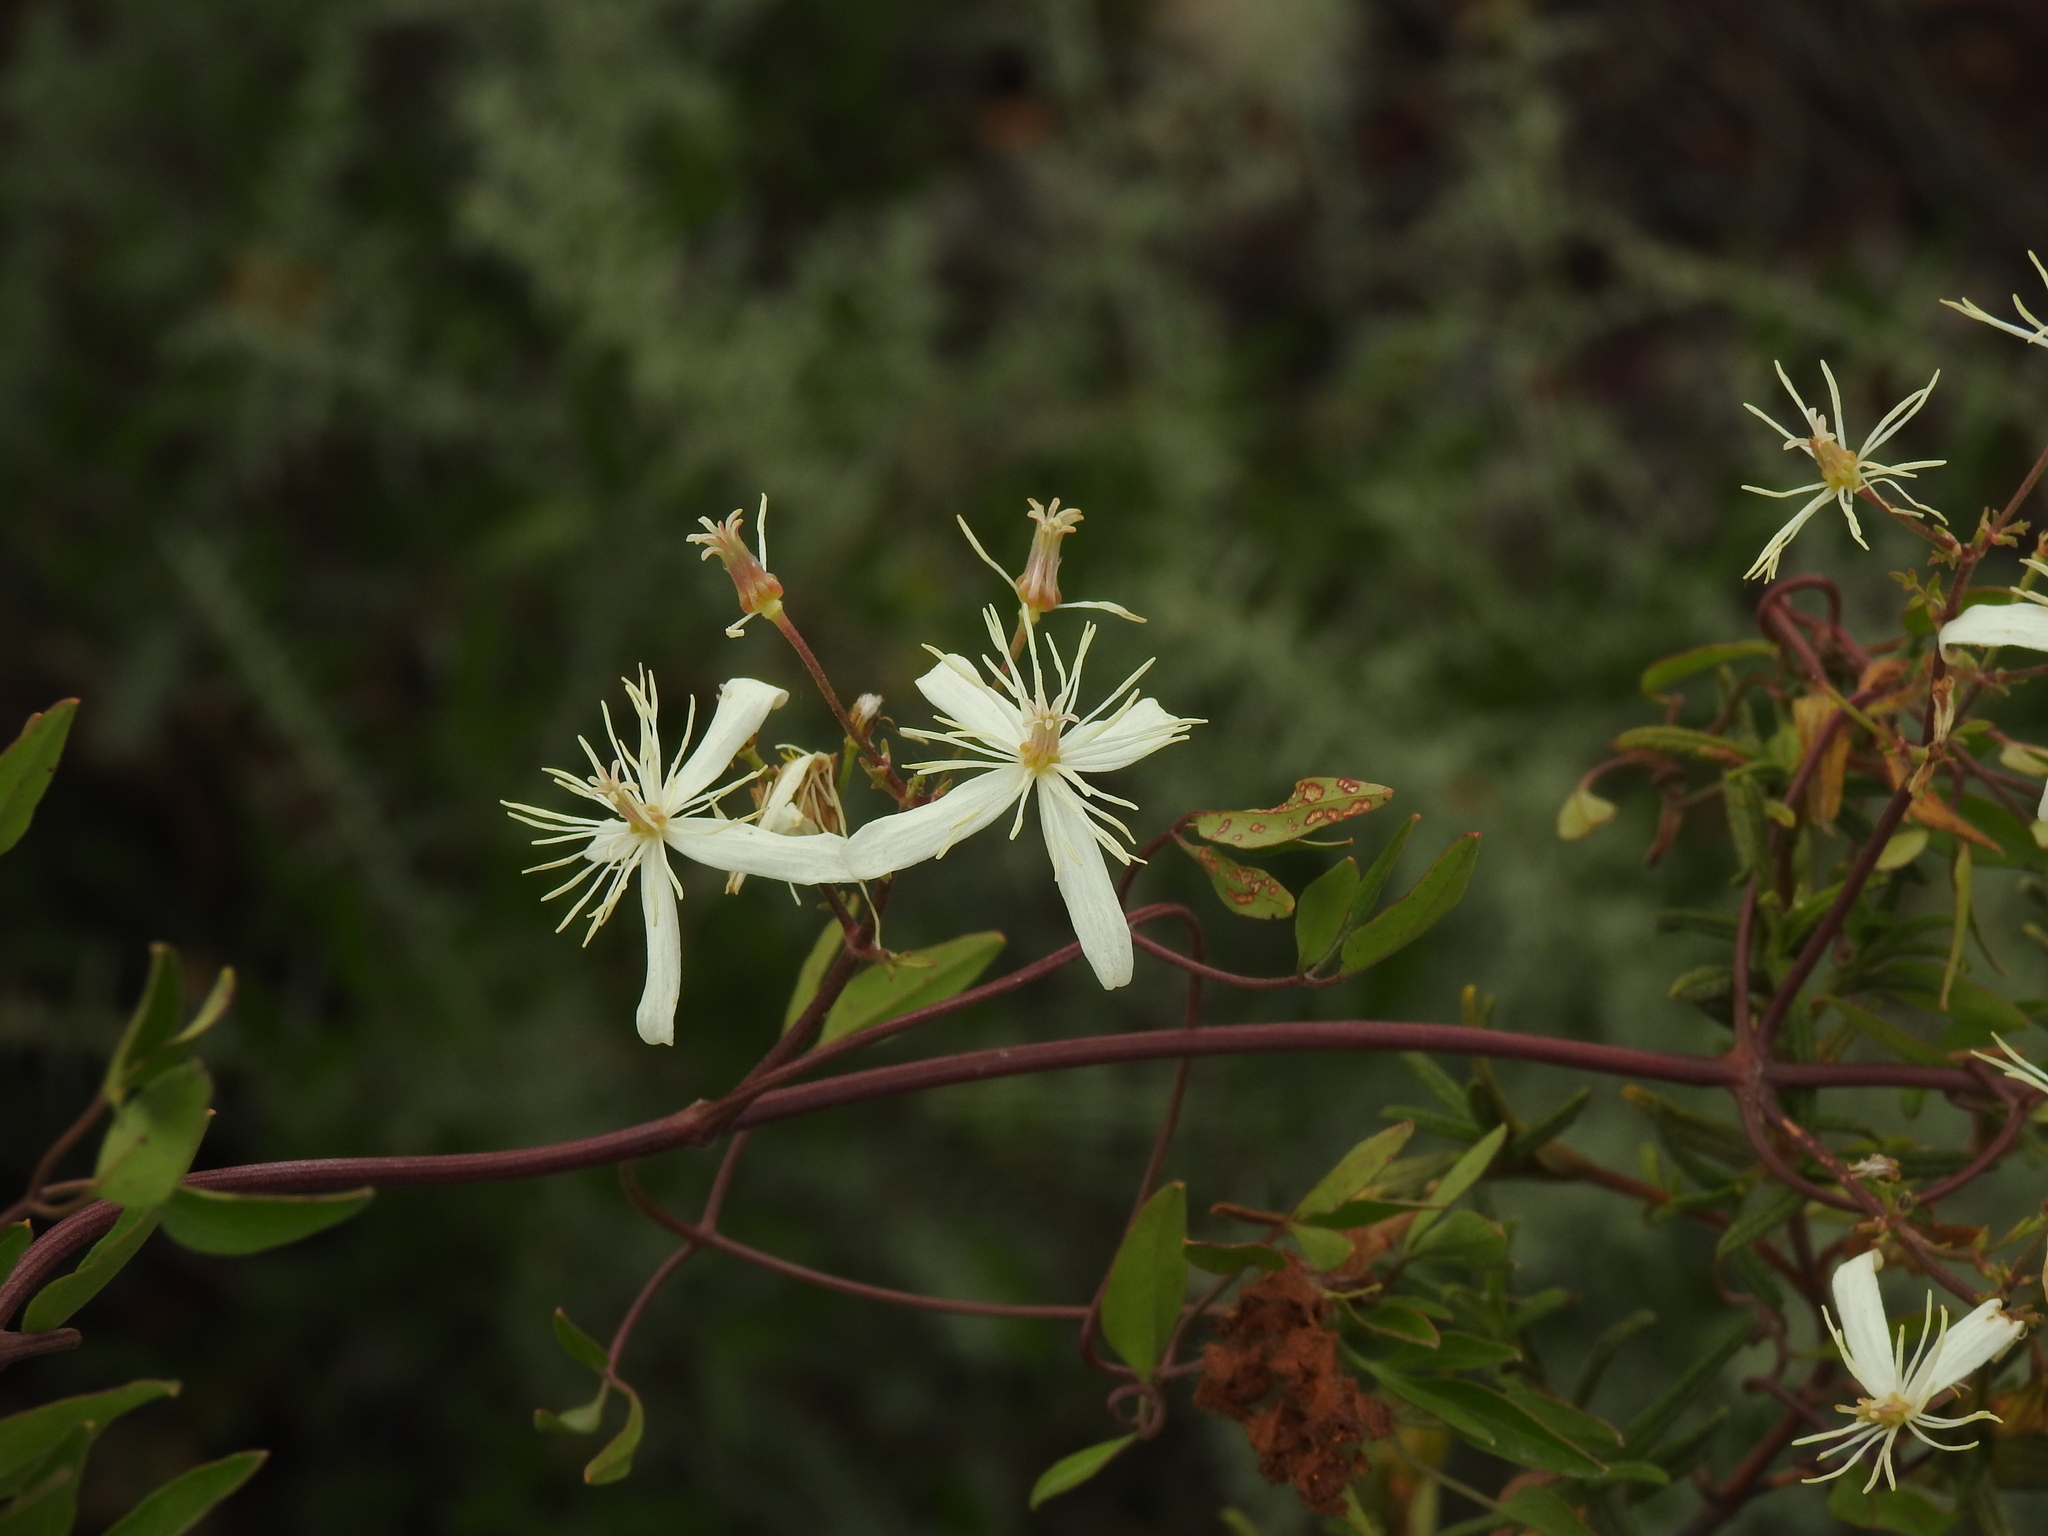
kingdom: Plantae
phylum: Tracheophyta
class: Magnoliopsida
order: Ranunculales
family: Ranunculaceae
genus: Clematis
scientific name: Clematis flammula
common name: Virgin's-bower
